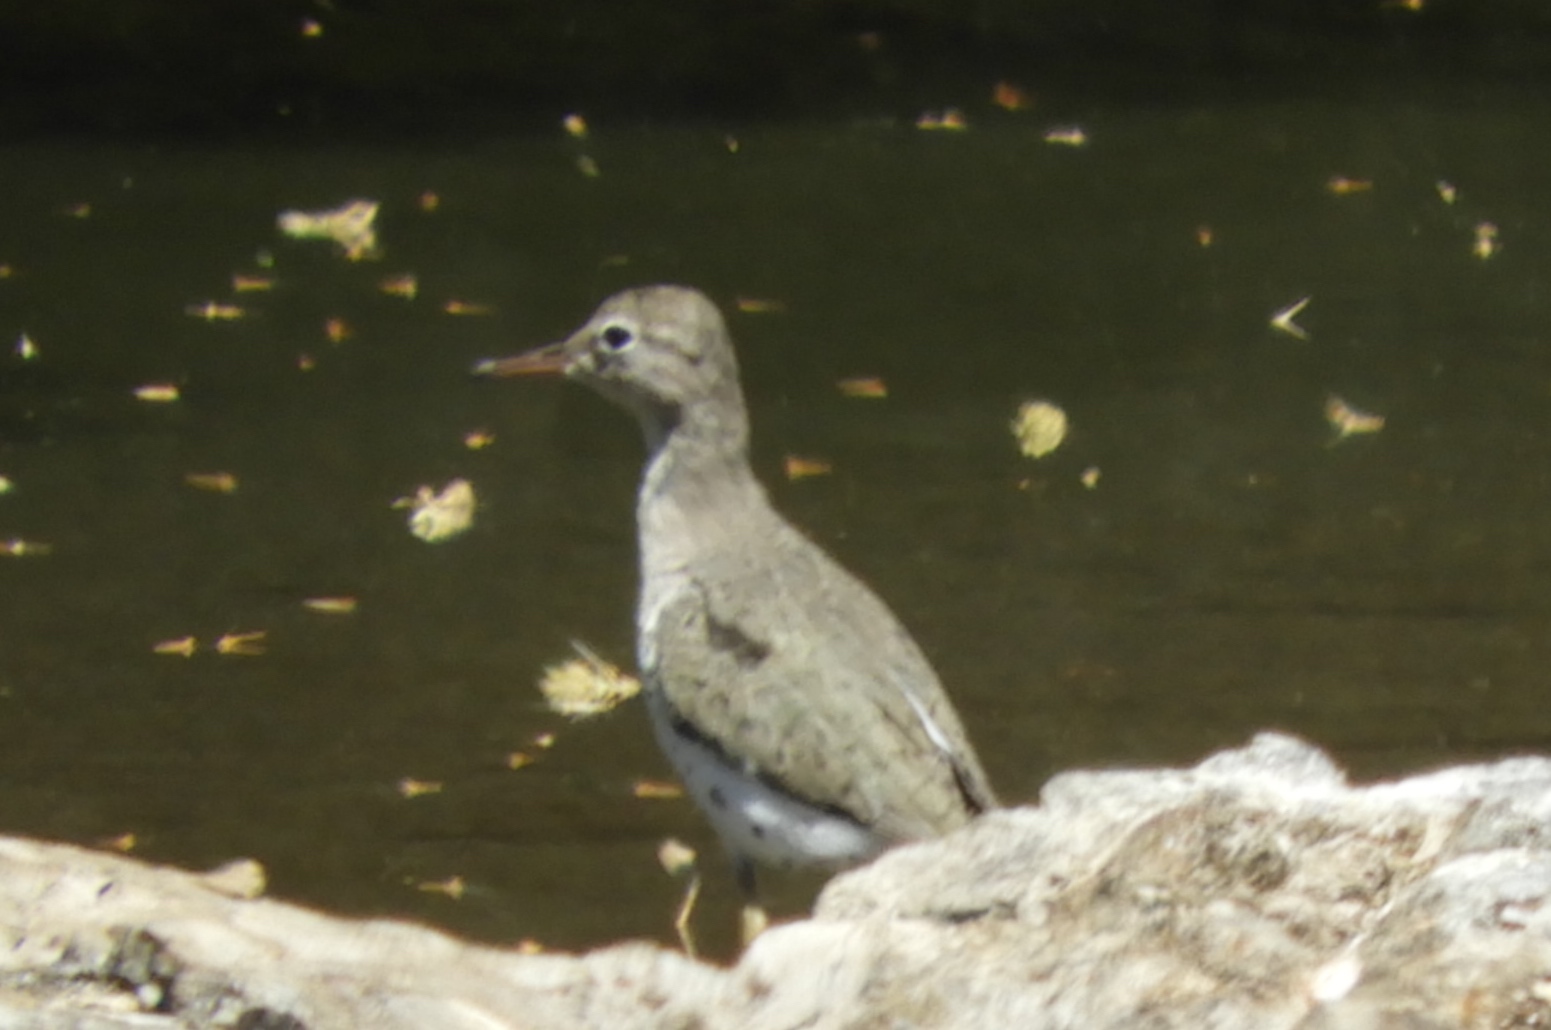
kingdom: Animalia
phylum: Chordata
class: Aves
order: Charadriiformes
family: Scolopacidae
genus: Actitis
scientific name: Actitis macularius
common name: Spotted sandpiper
